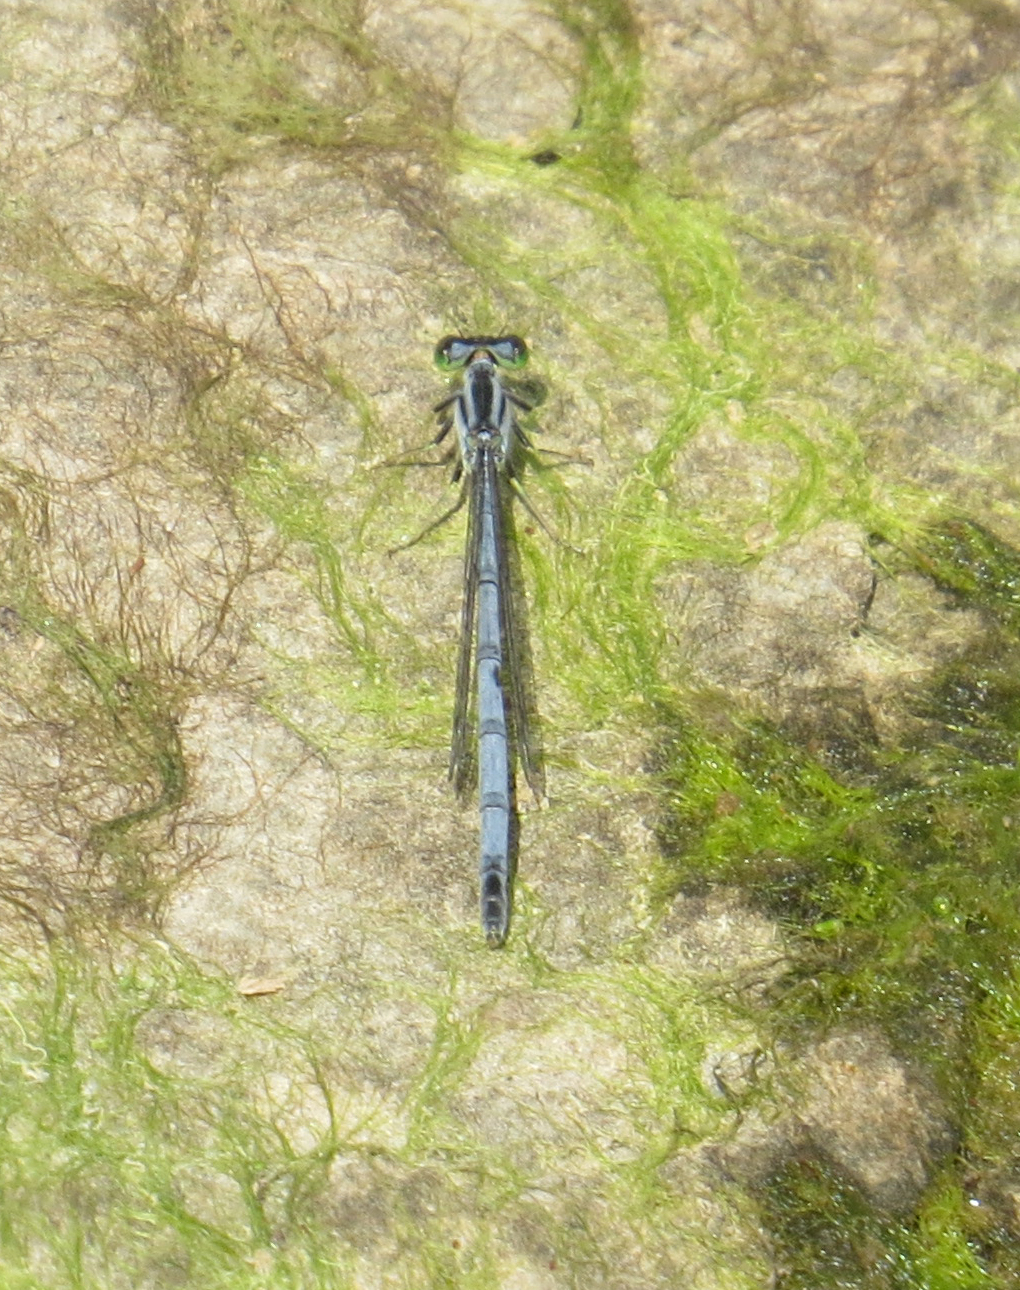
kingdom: Animalia
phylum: Arthropoda
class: Insecta
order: Odonata
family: Coenagrionidae
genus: Ischnura
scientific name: Ischnura verticalis
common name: Eastern forktail
